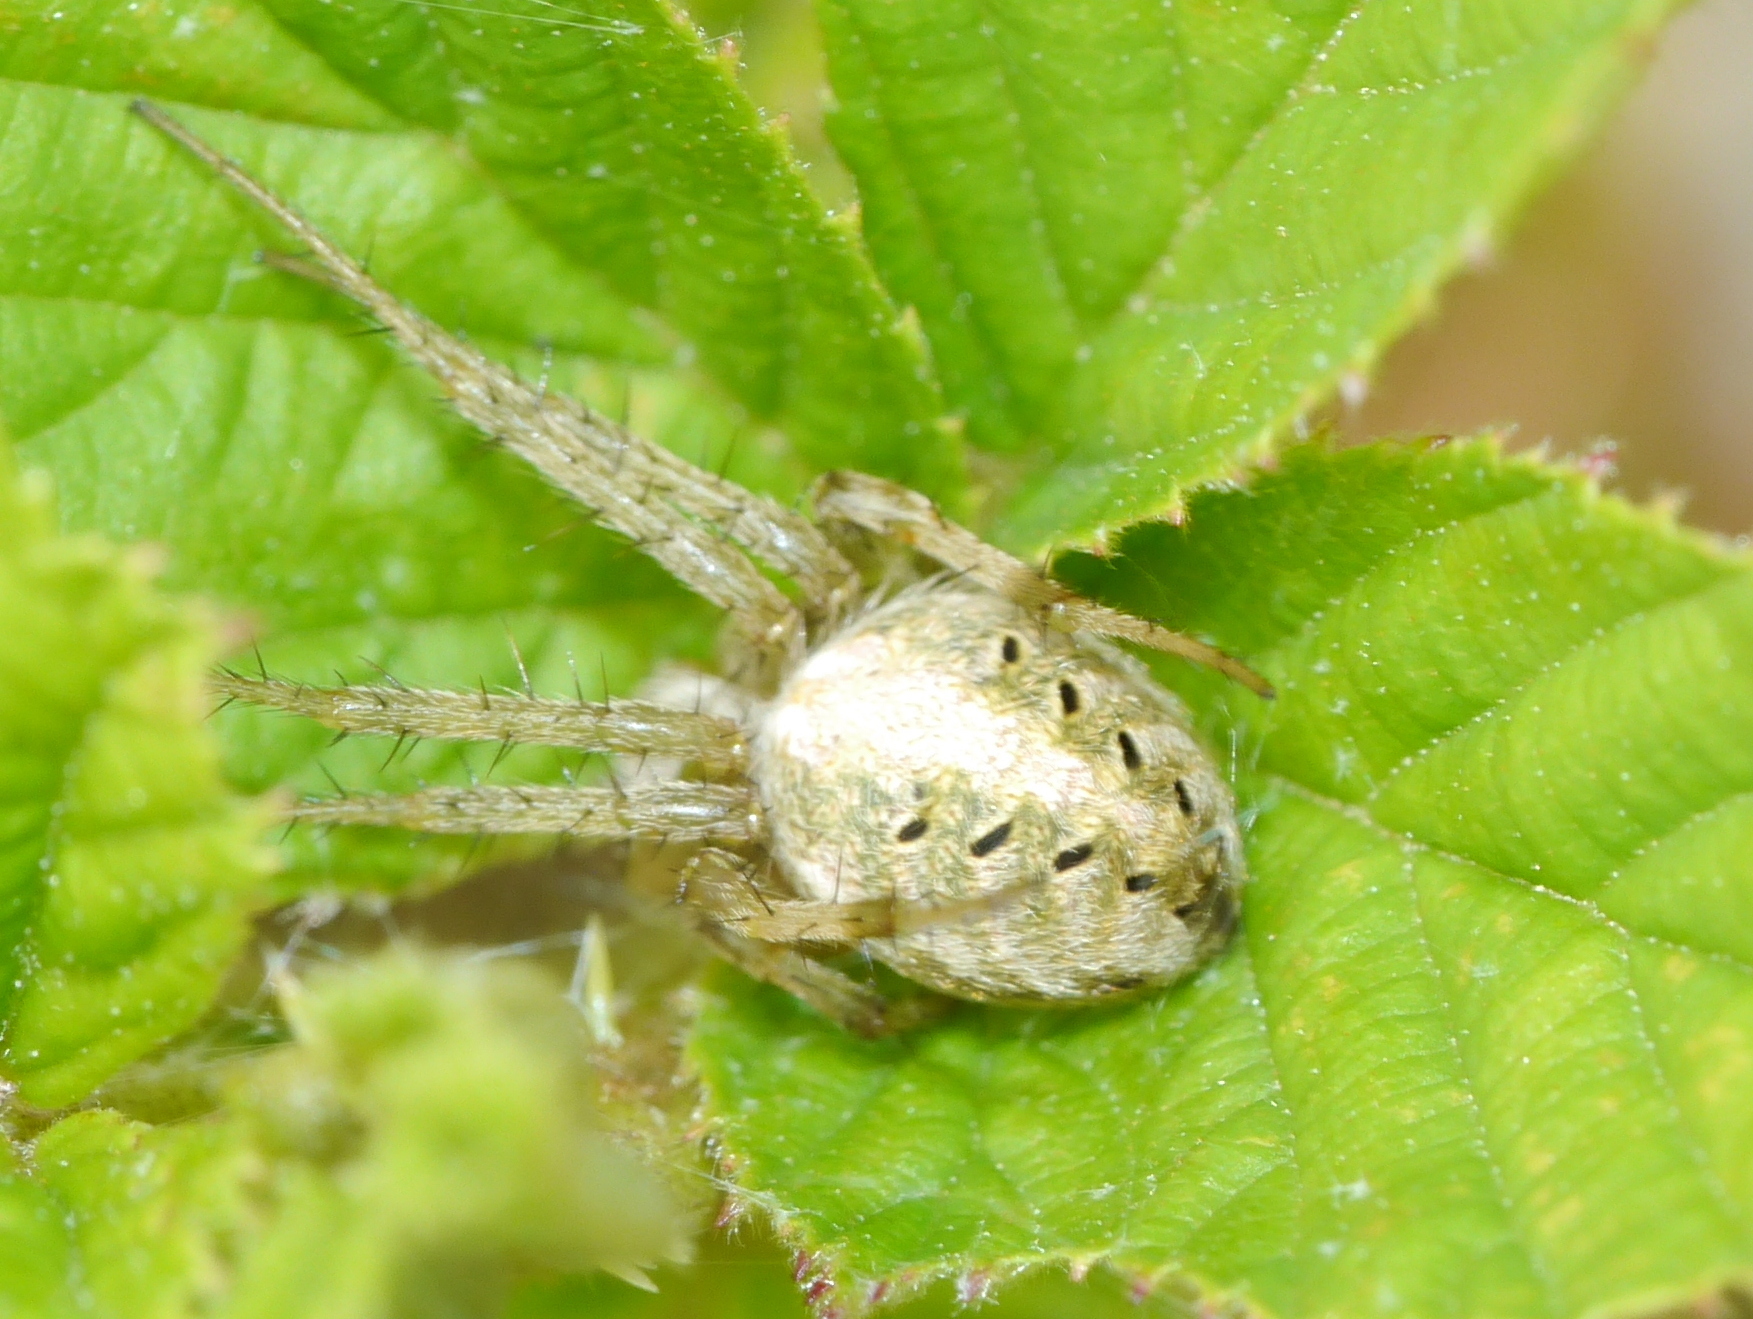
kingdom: Animalia
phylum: Arthropoda
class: Arachnida
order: Araneae
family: Araneidae
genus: Neoscona
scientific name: Neoscona arabesca
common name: Orb weavers
